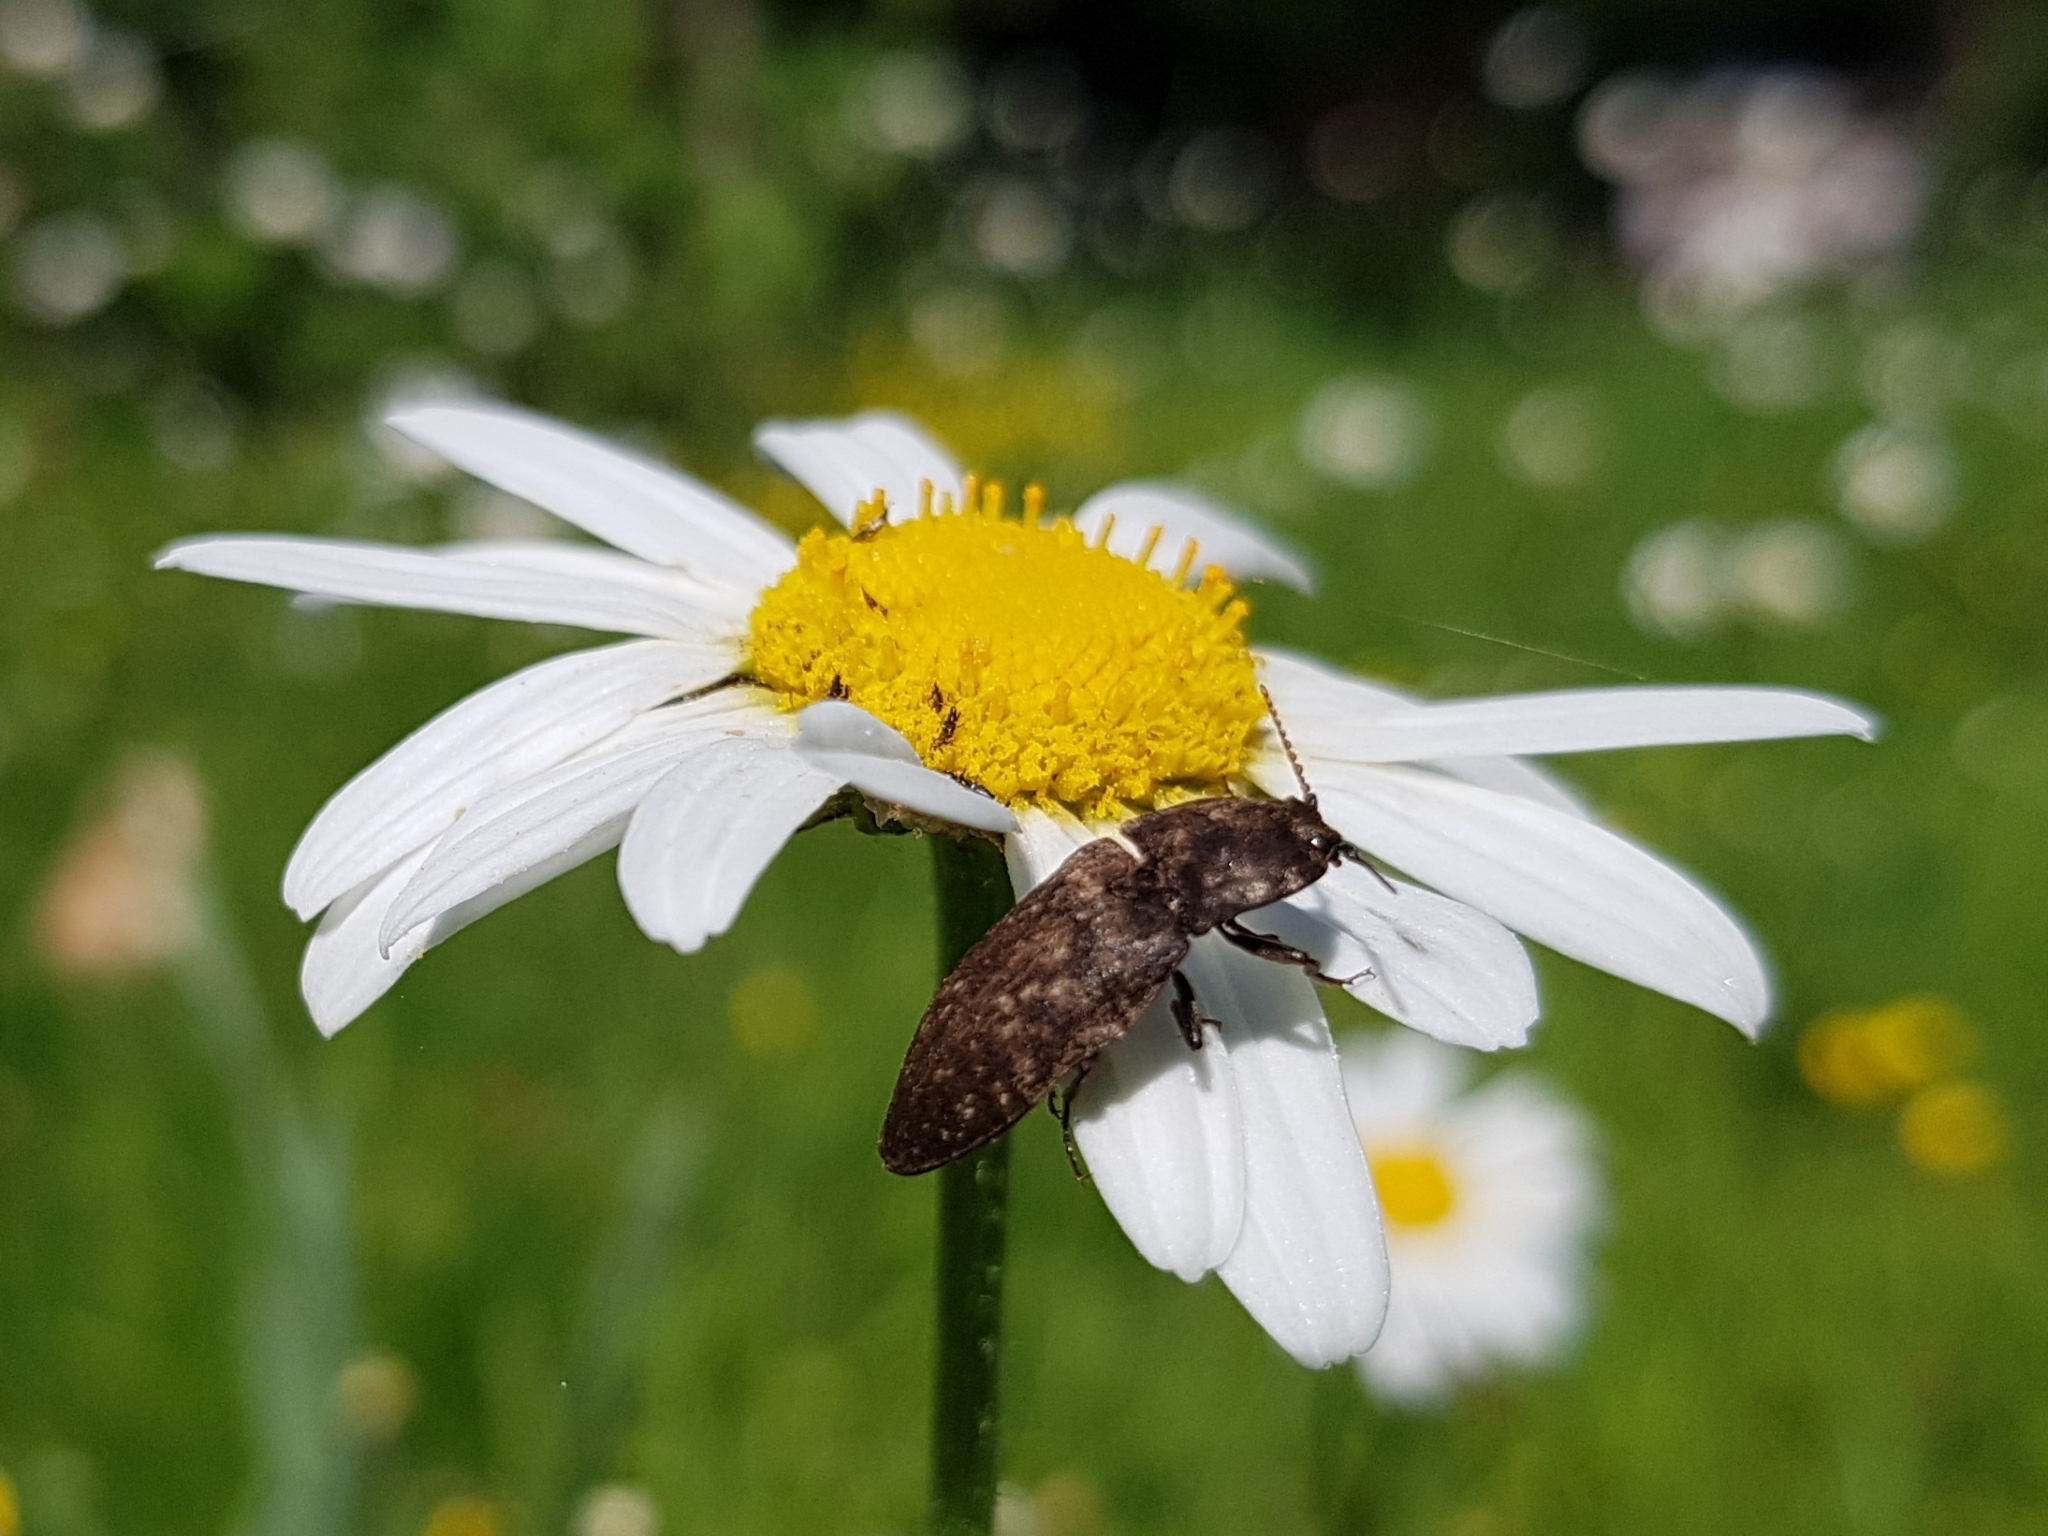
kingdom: Animalia
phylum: Arthropoda
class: Insecta
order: Coleoptera
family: Elateridae
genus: Agrypnus
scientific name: Agrypnus murinus
